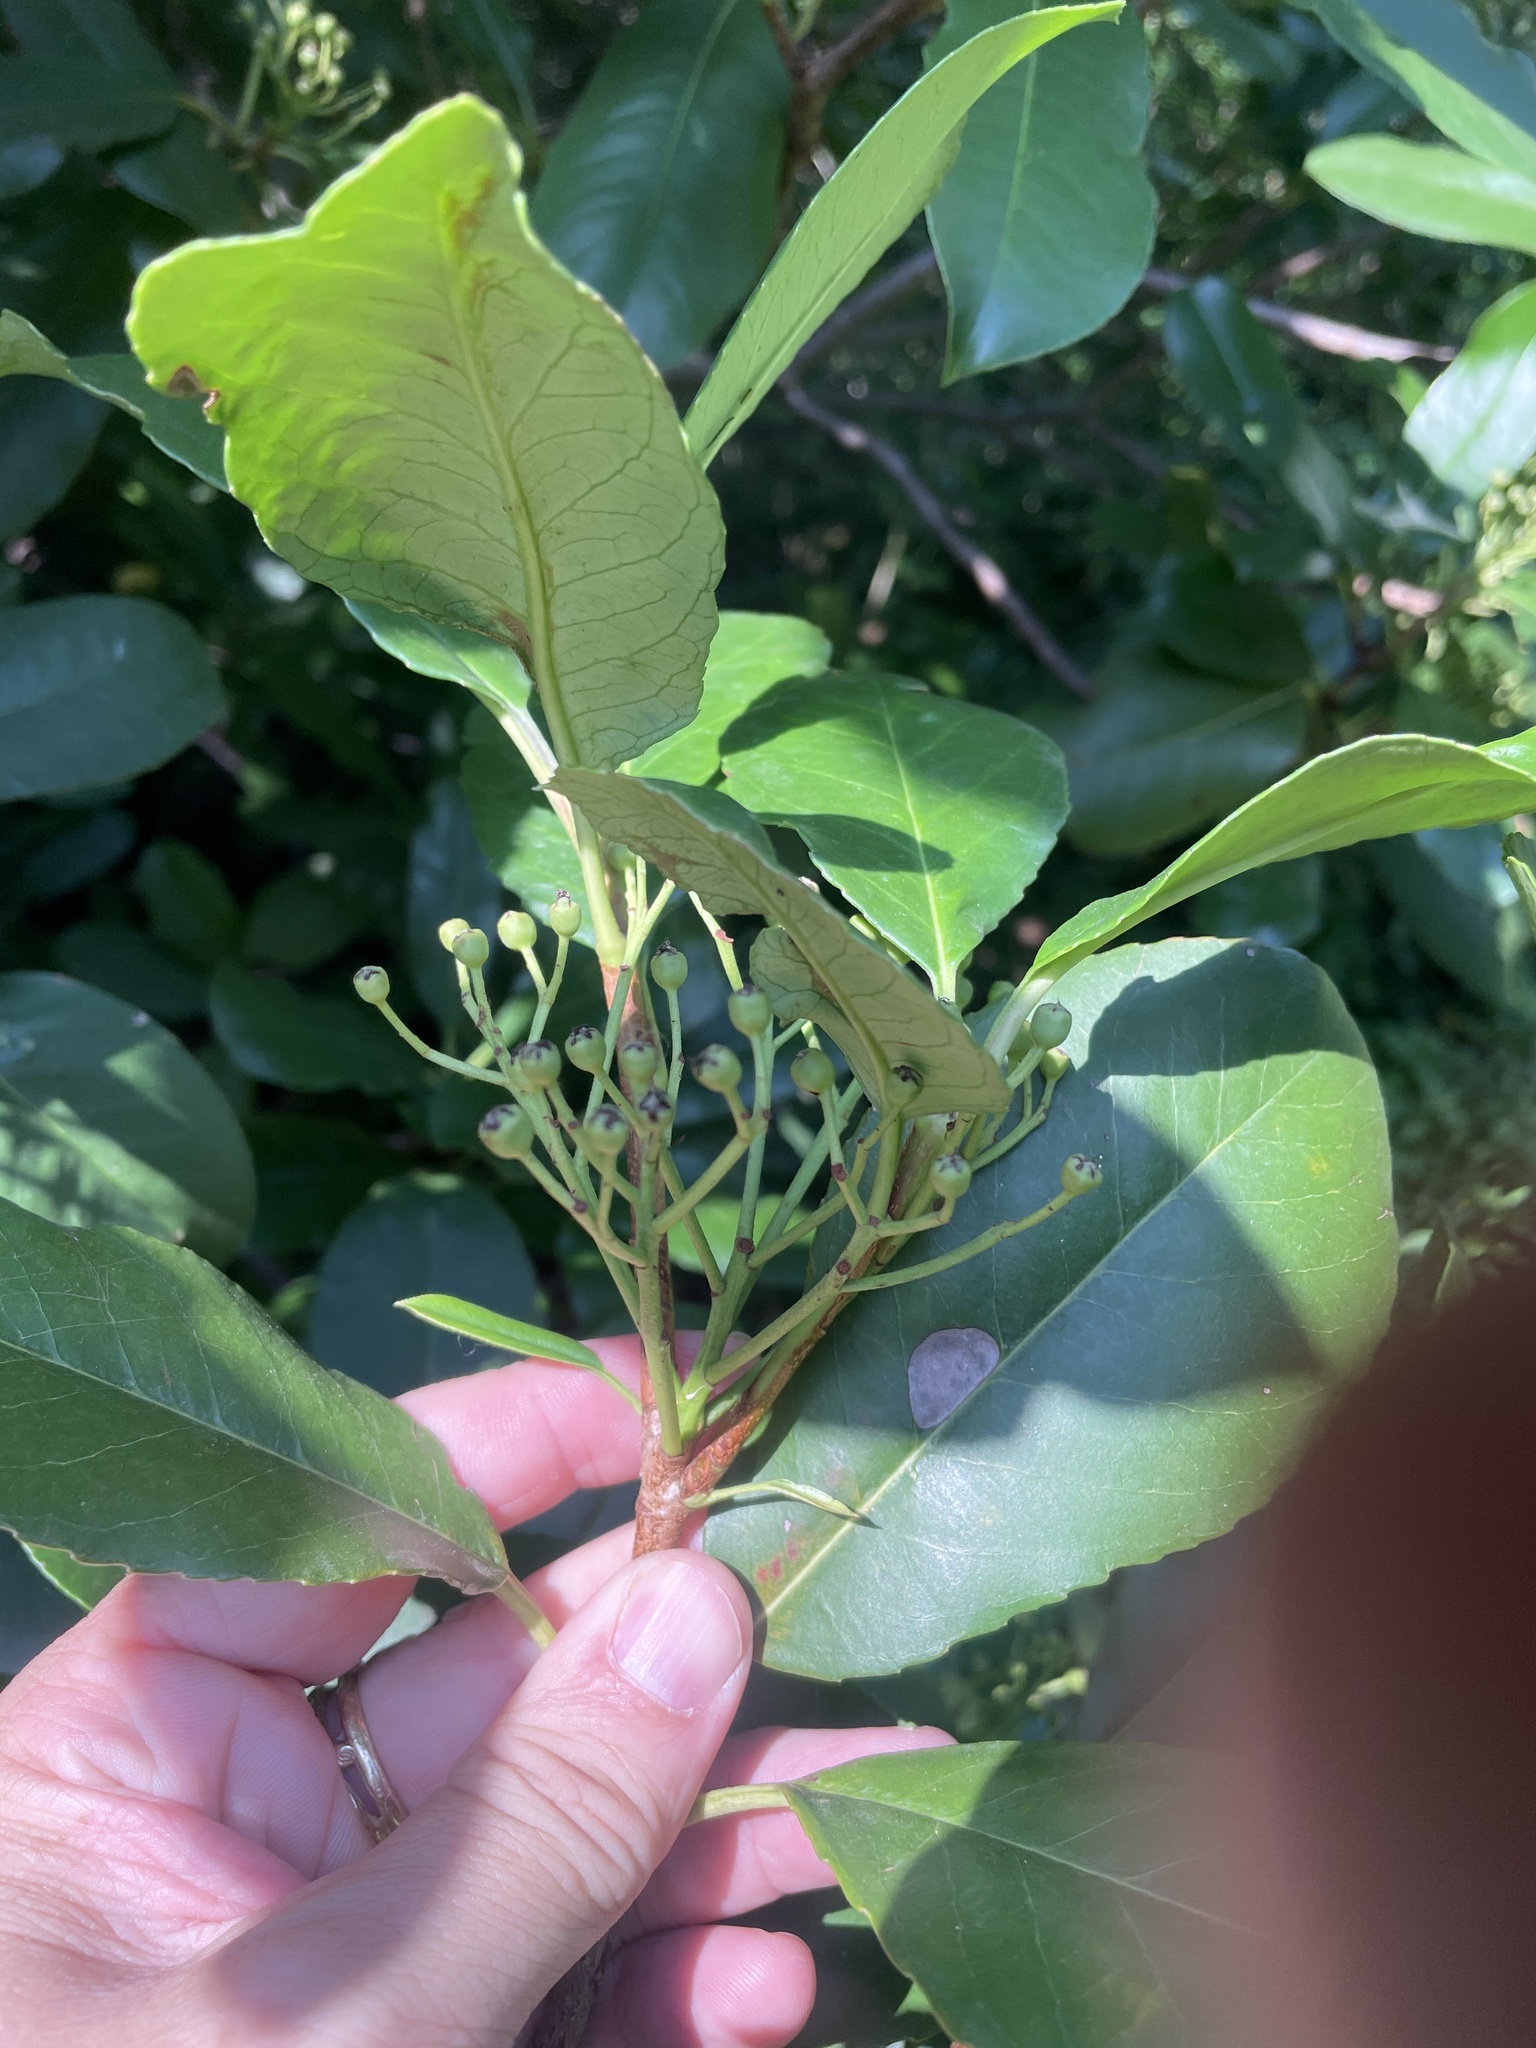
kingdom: Plantae
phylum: Tracheophyta
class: Magnoliopsida
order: Rosales
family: Rosaceae
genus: Photinia
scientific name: Photinia serratifolia
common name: Taiwanese photinia
